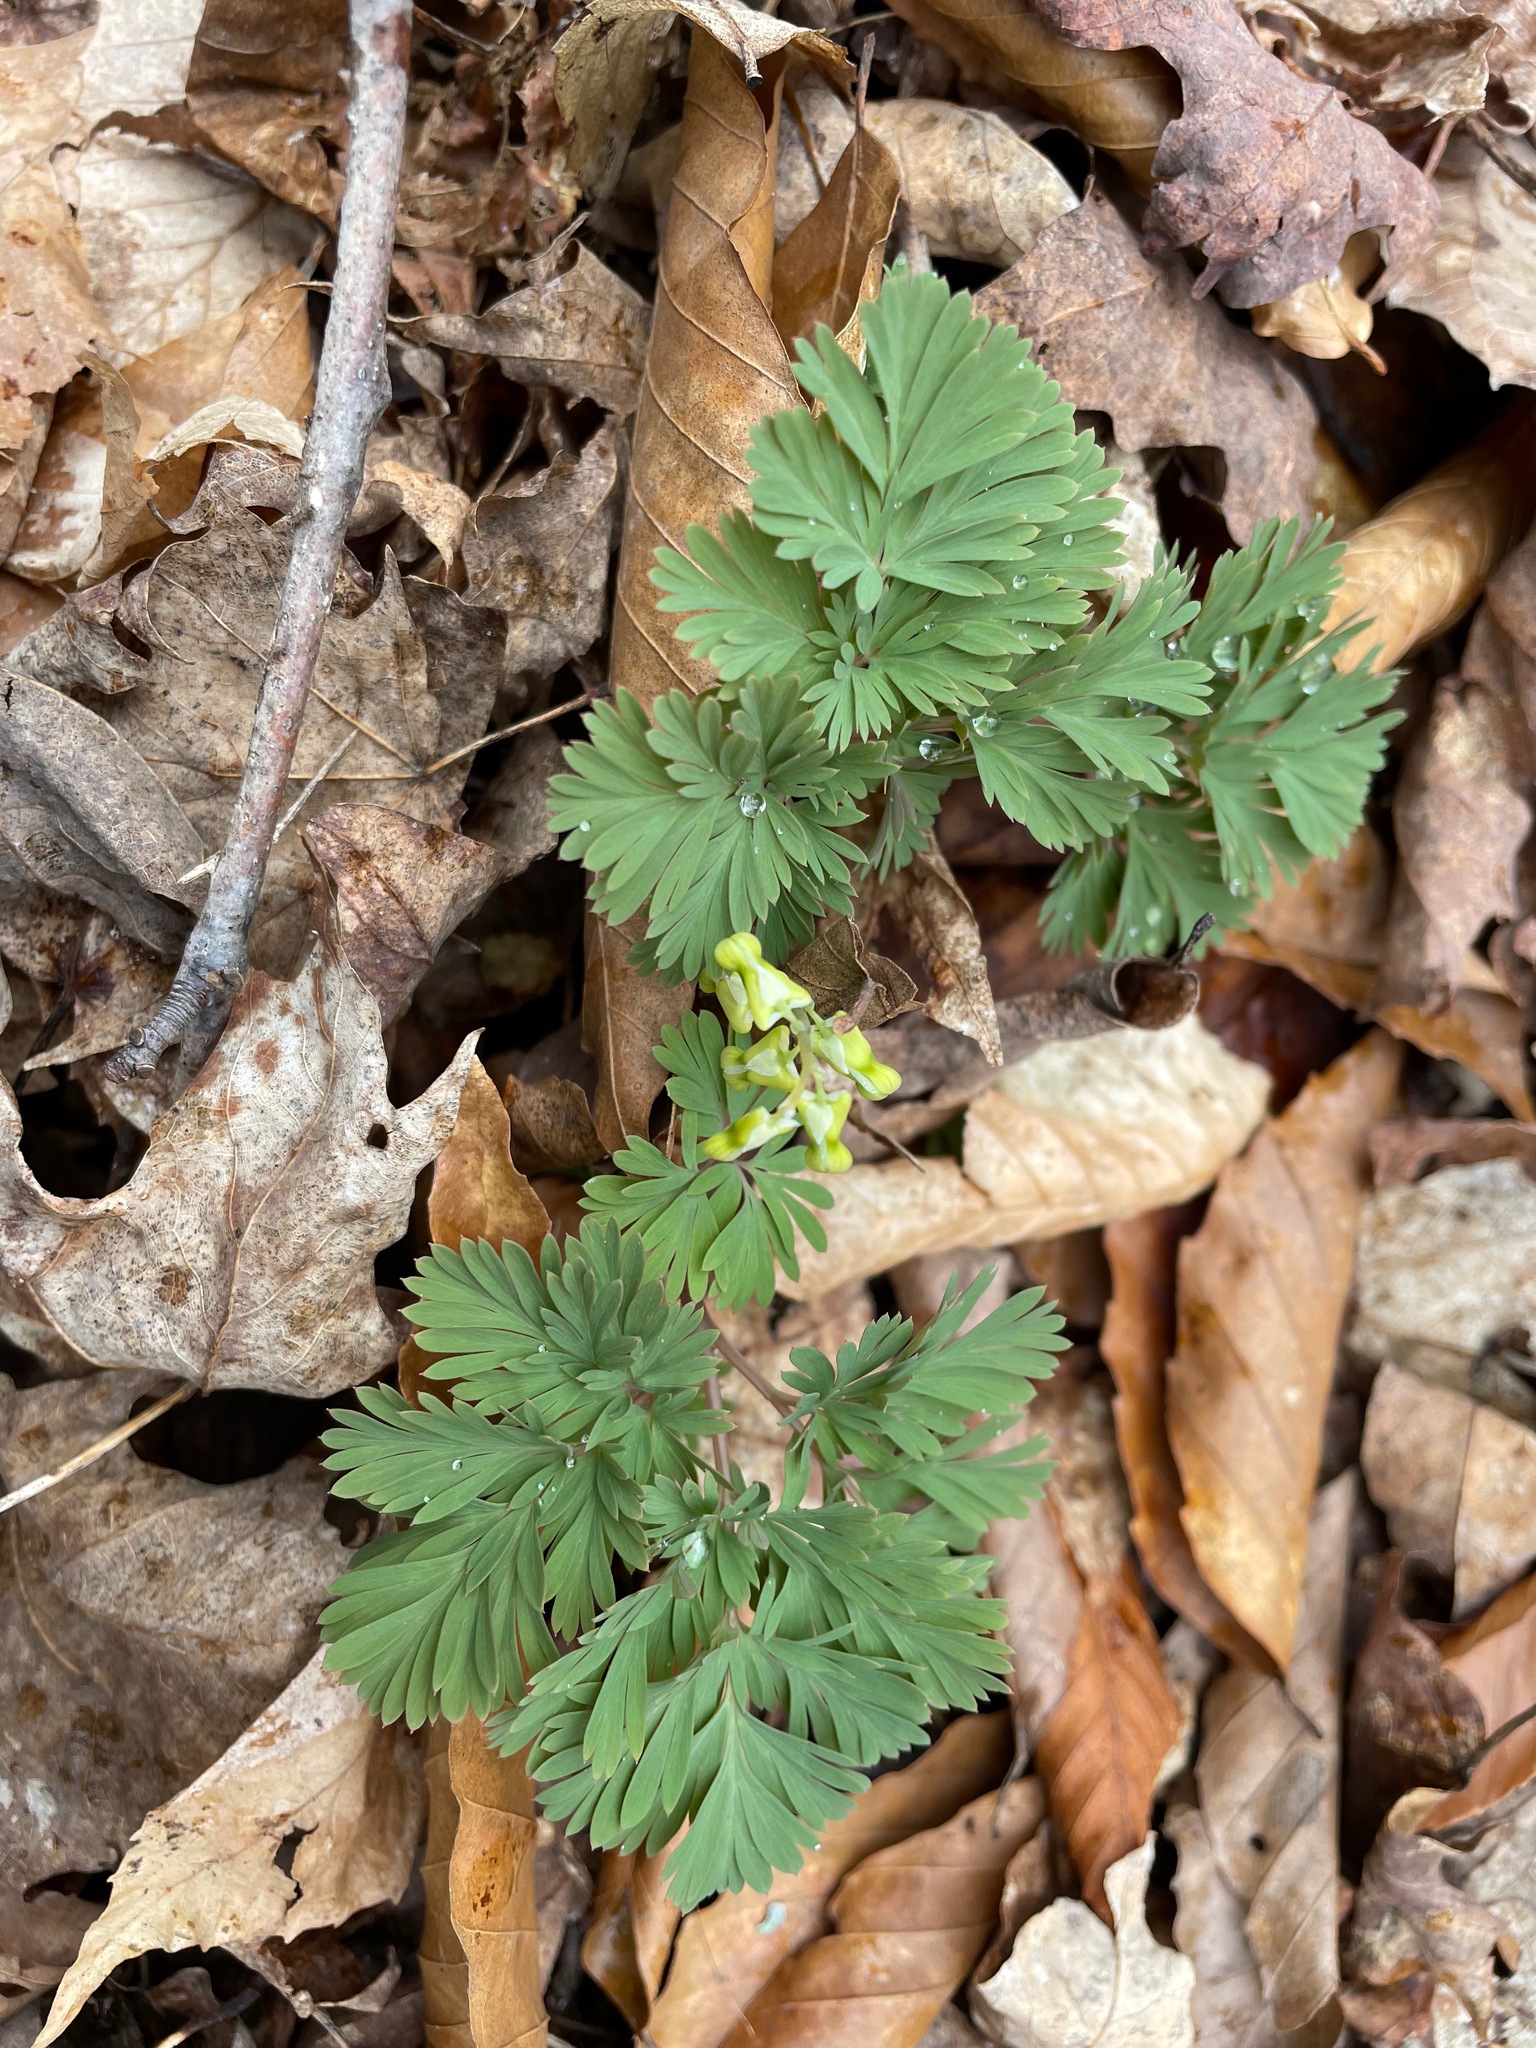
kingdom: Plantae
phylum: Tracheophyta
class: Magnoliopsida
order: Ranunculales
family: Papaveraceae
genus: Dicentra
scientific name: Dicentra cucullaria
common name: Dutchman's breeches
